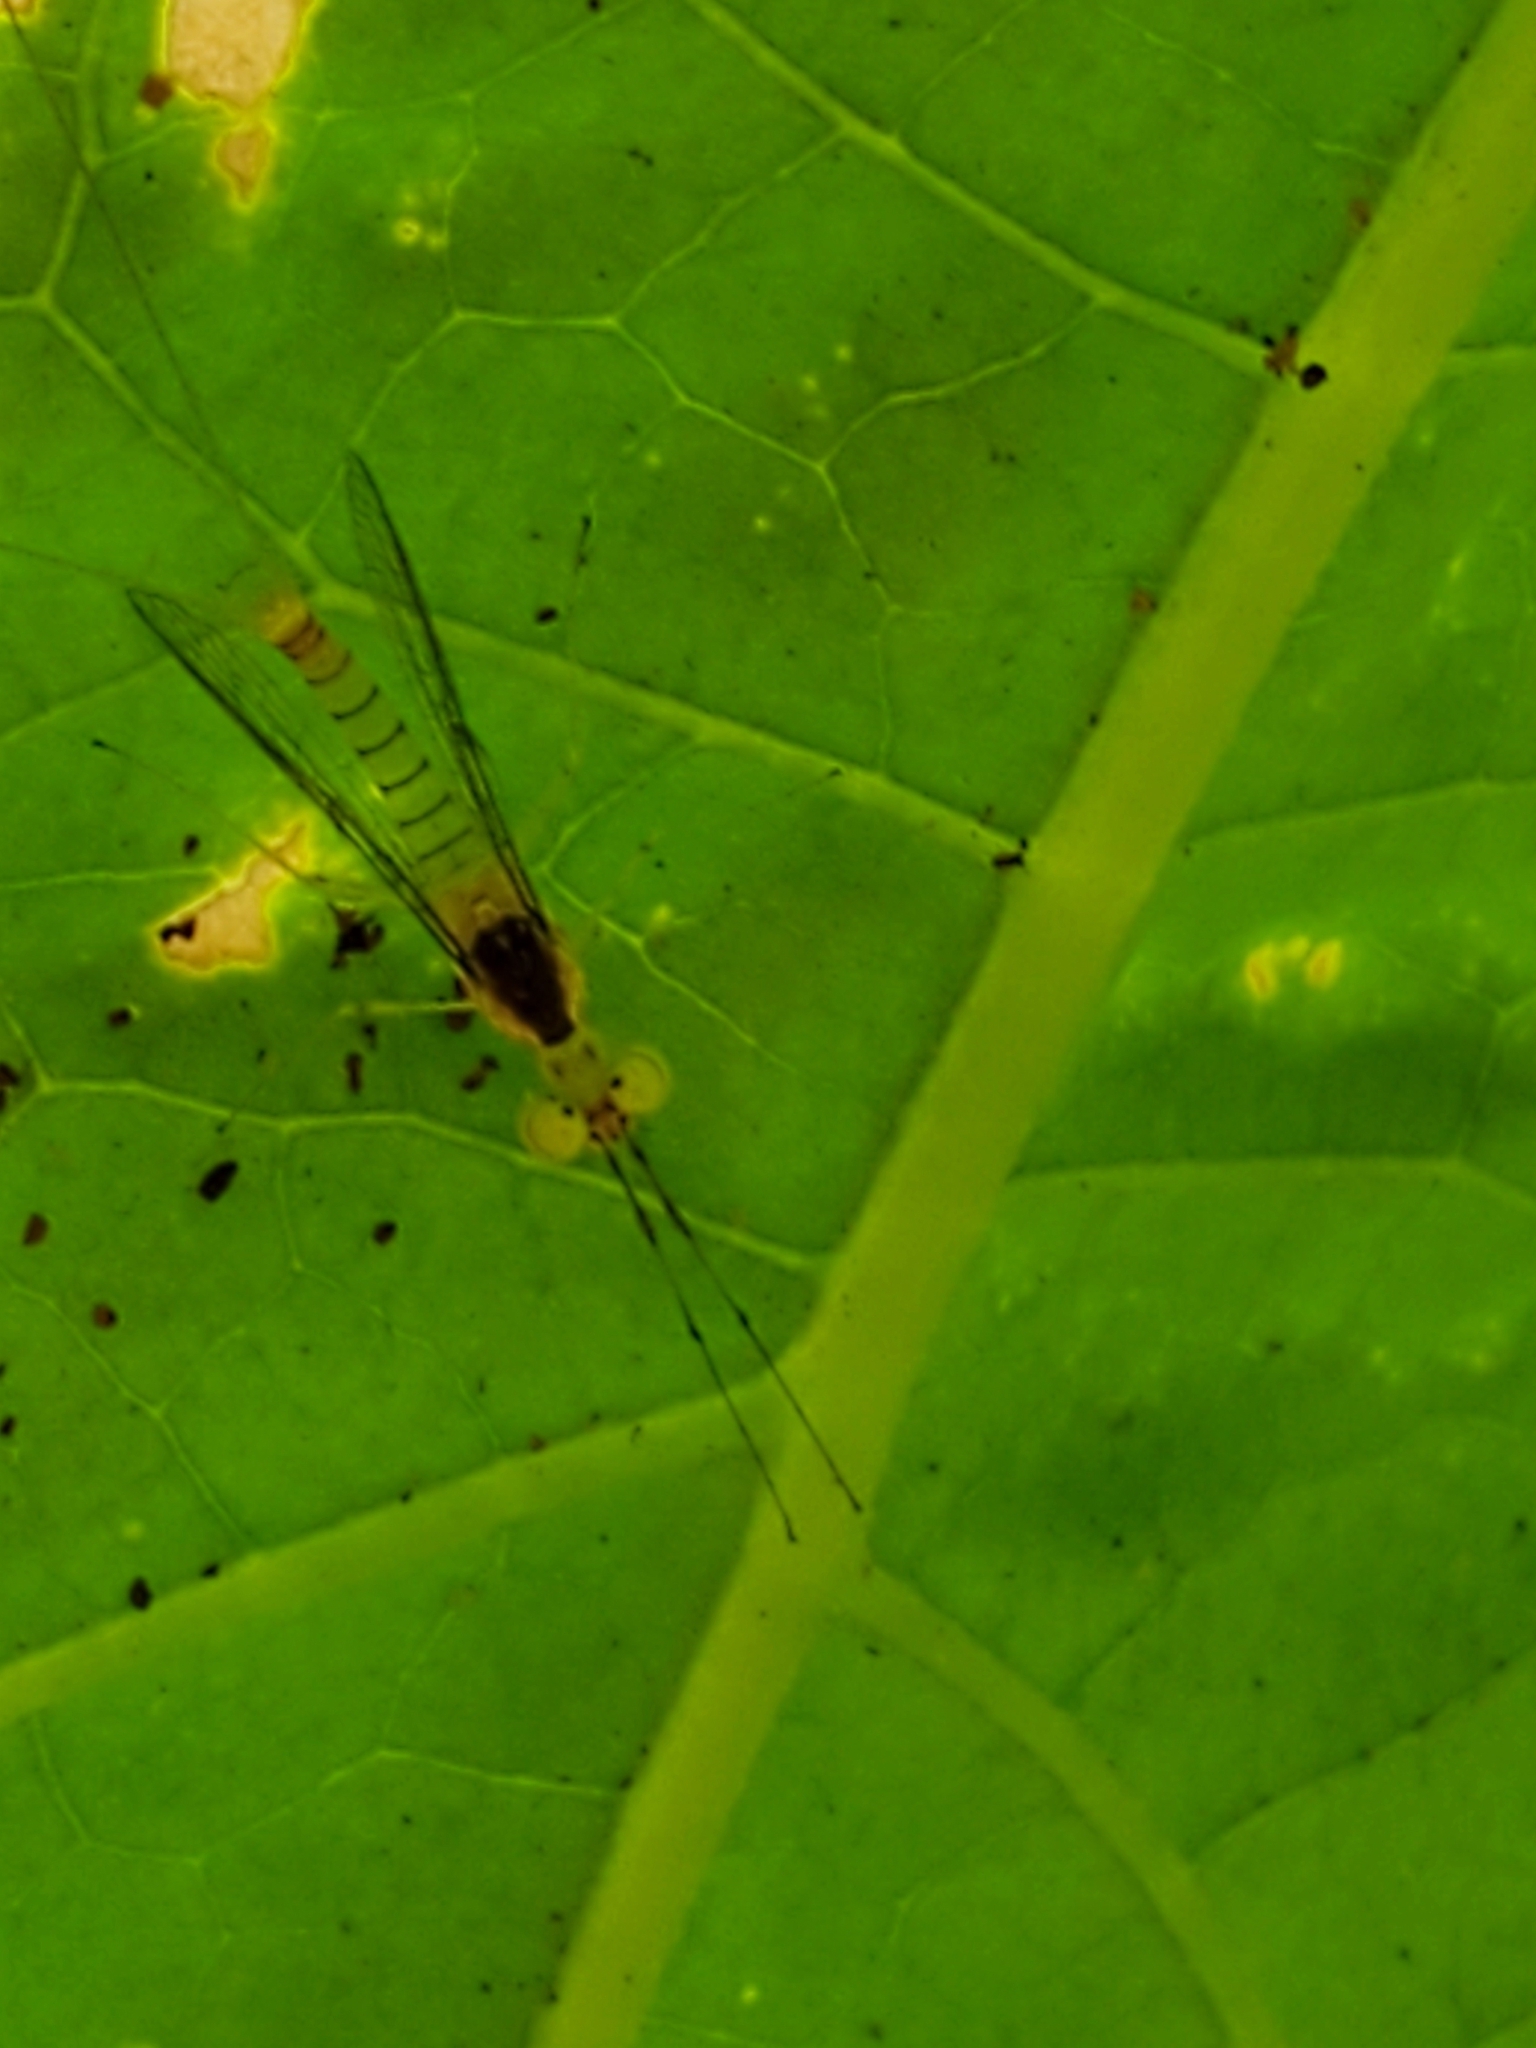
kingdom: Animalia
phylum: Arthropoda
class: Insecta
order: Ephemeroptera
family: Heptageniidae
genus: Stenacron
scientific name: Stenacron interpunctatum
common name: Orange cahill
